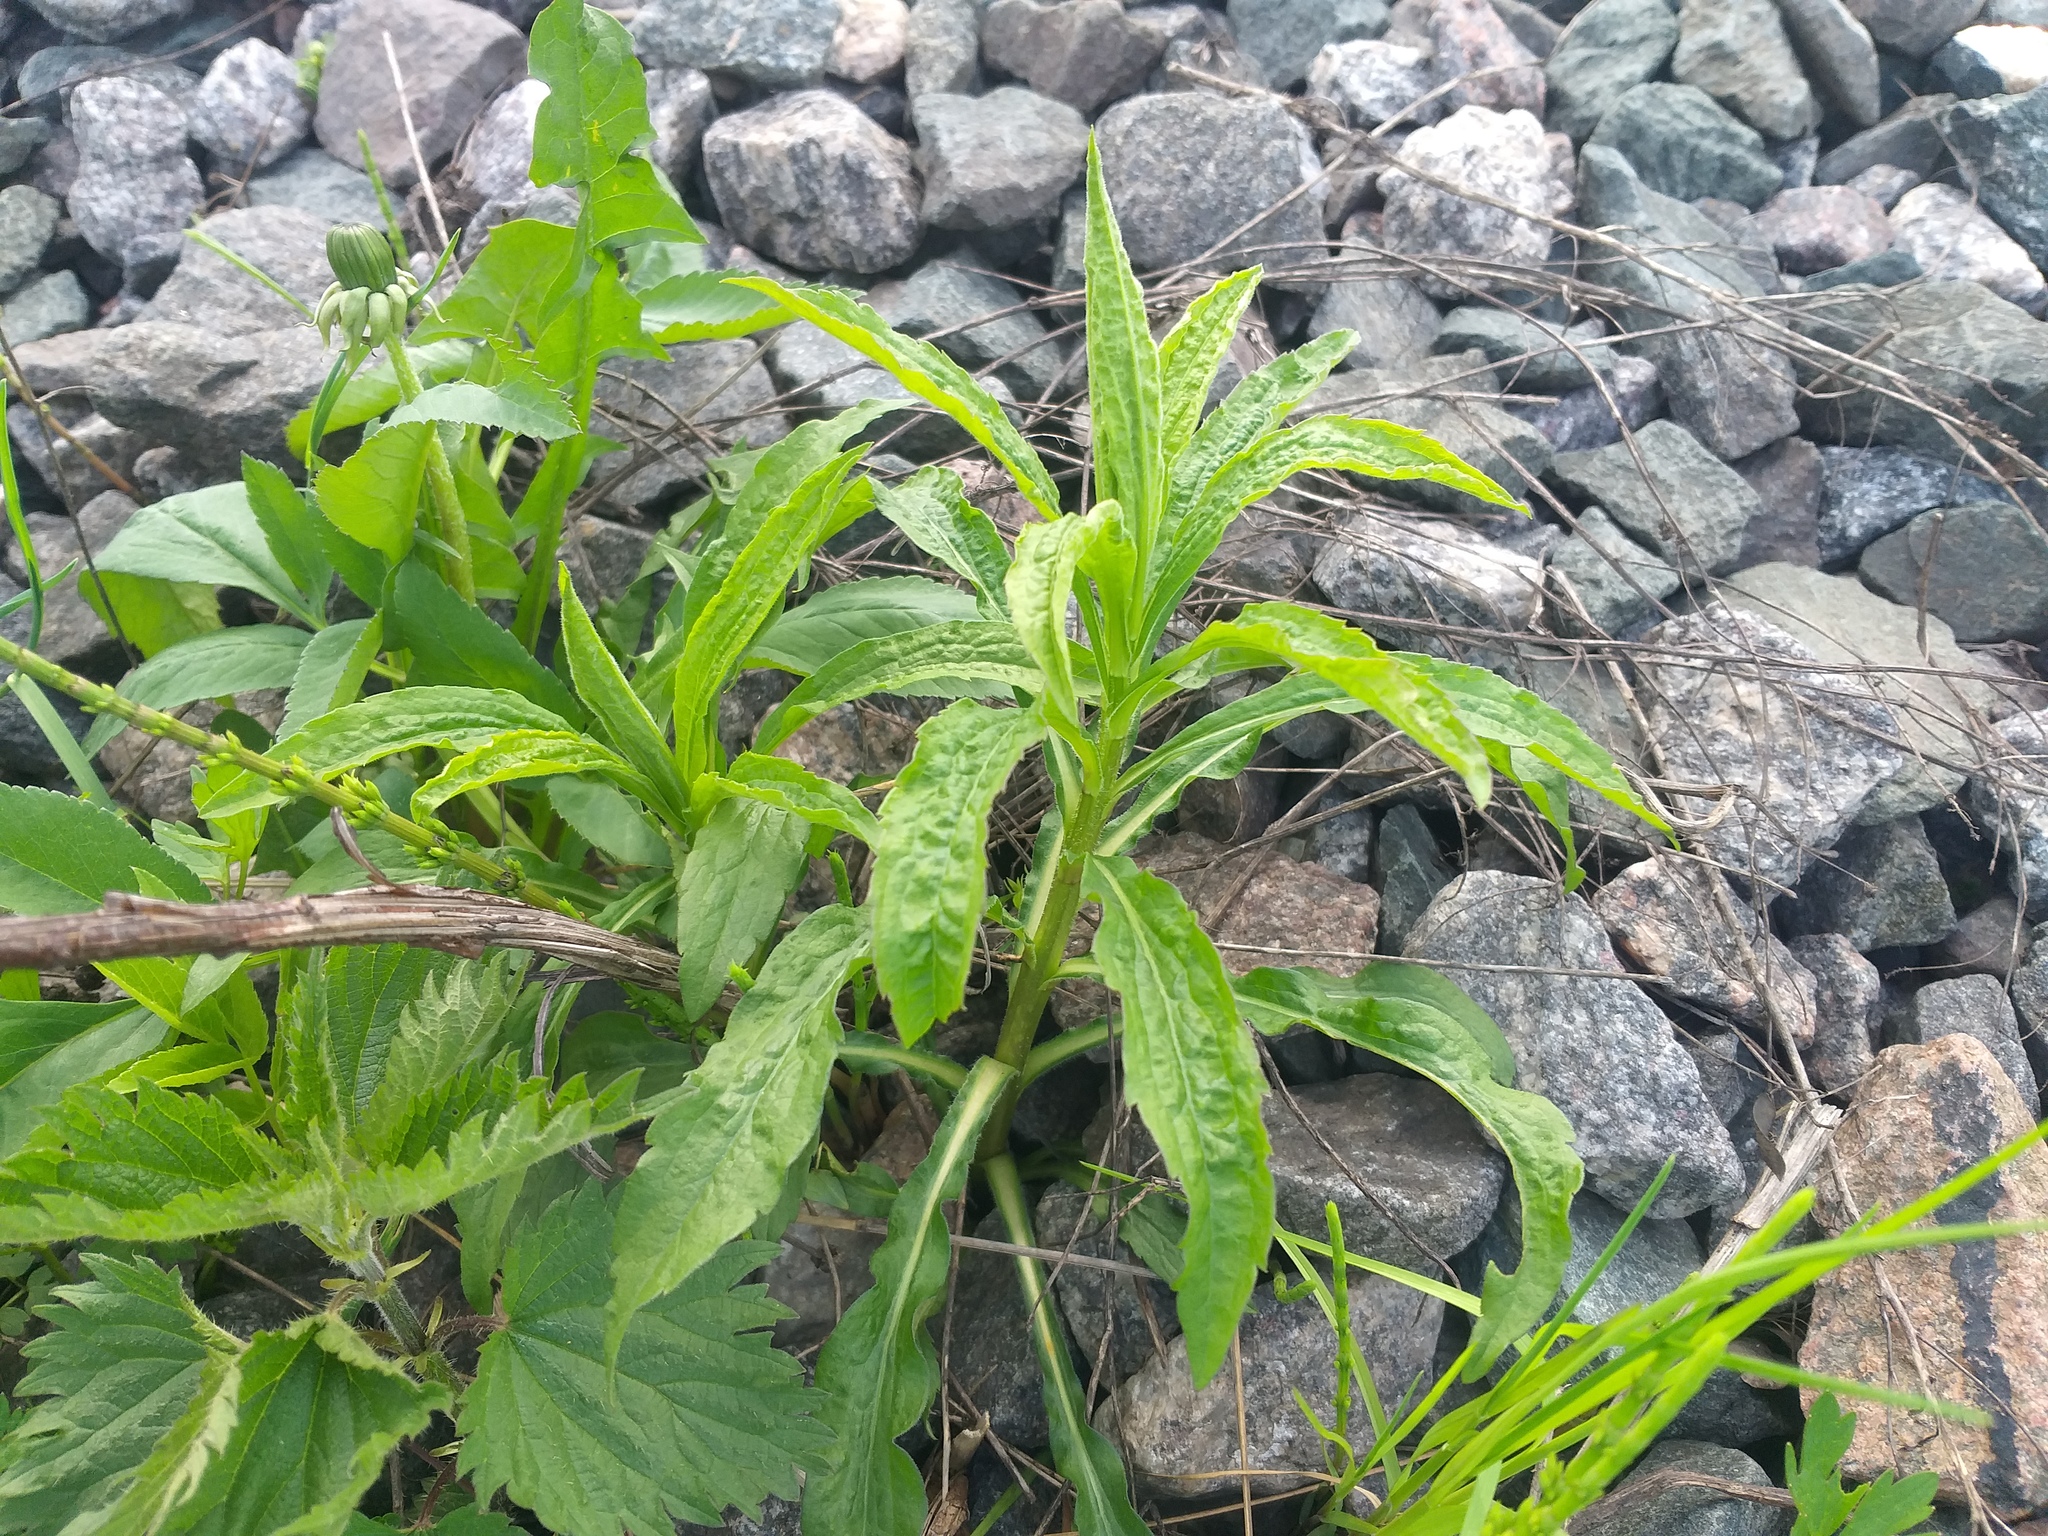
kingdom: Plantae
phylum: Tracheophyta
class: Magnoliopsida
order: Asterales
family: Asteraceae
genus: Solidago
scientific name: Solidago canadensis
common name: Canada goldenrod
